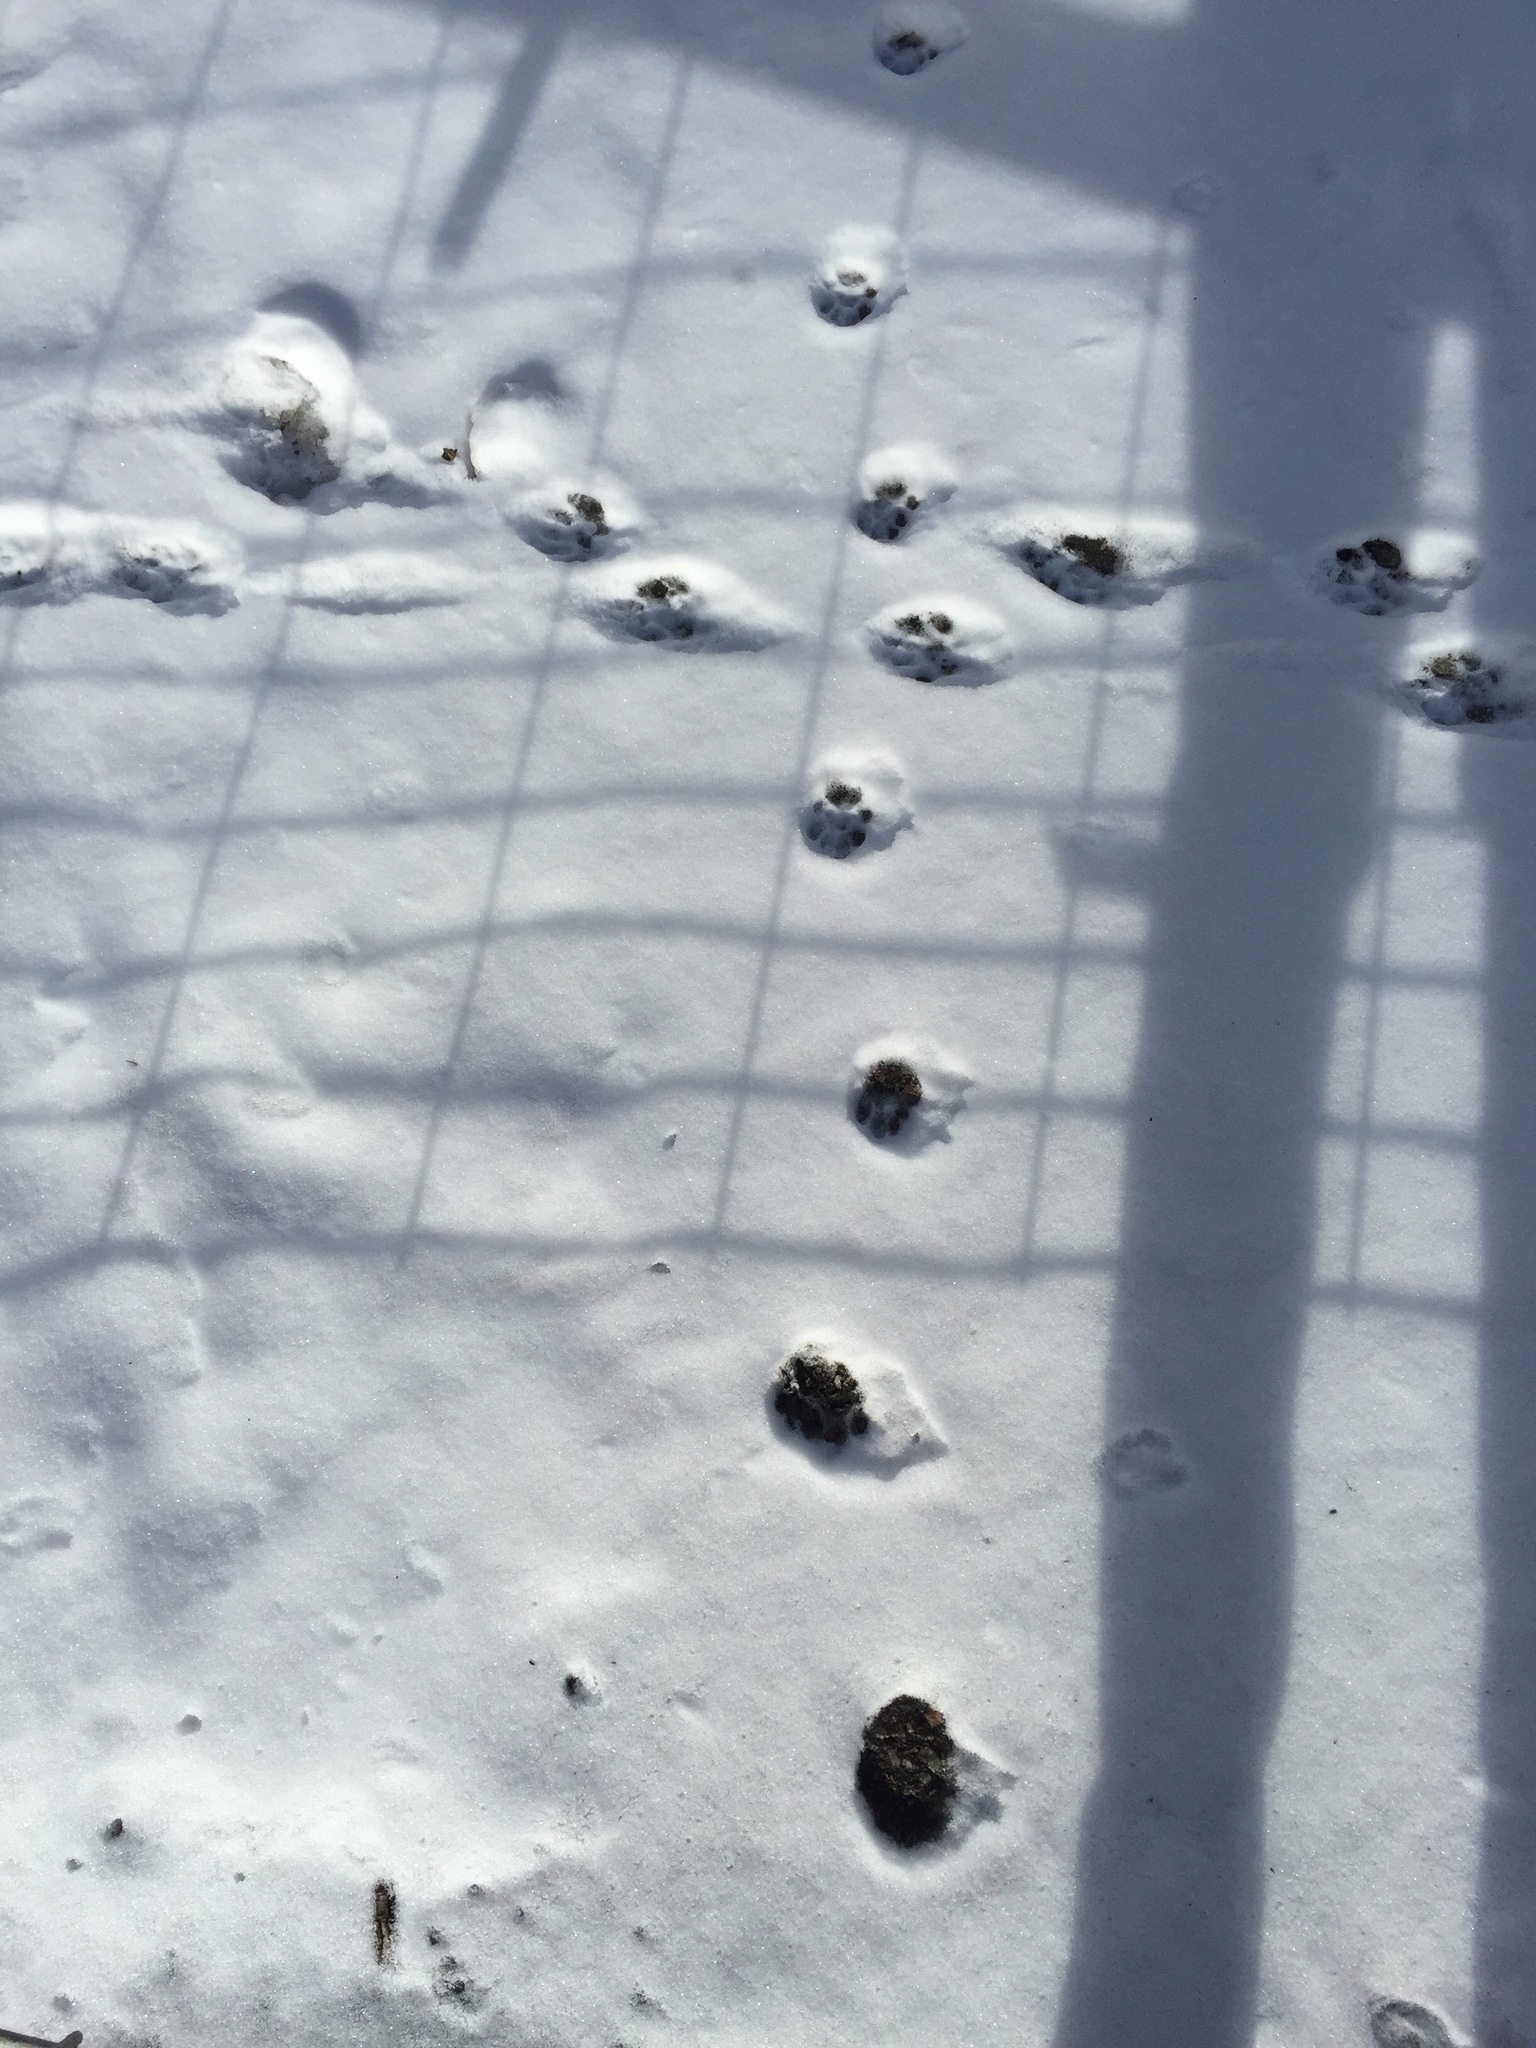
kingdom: Animalia
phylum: Chordata
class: Mammalia
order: Carnivora
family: Procyonidae
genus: Procyon
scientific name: Procyon lotor
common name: Raccoon
